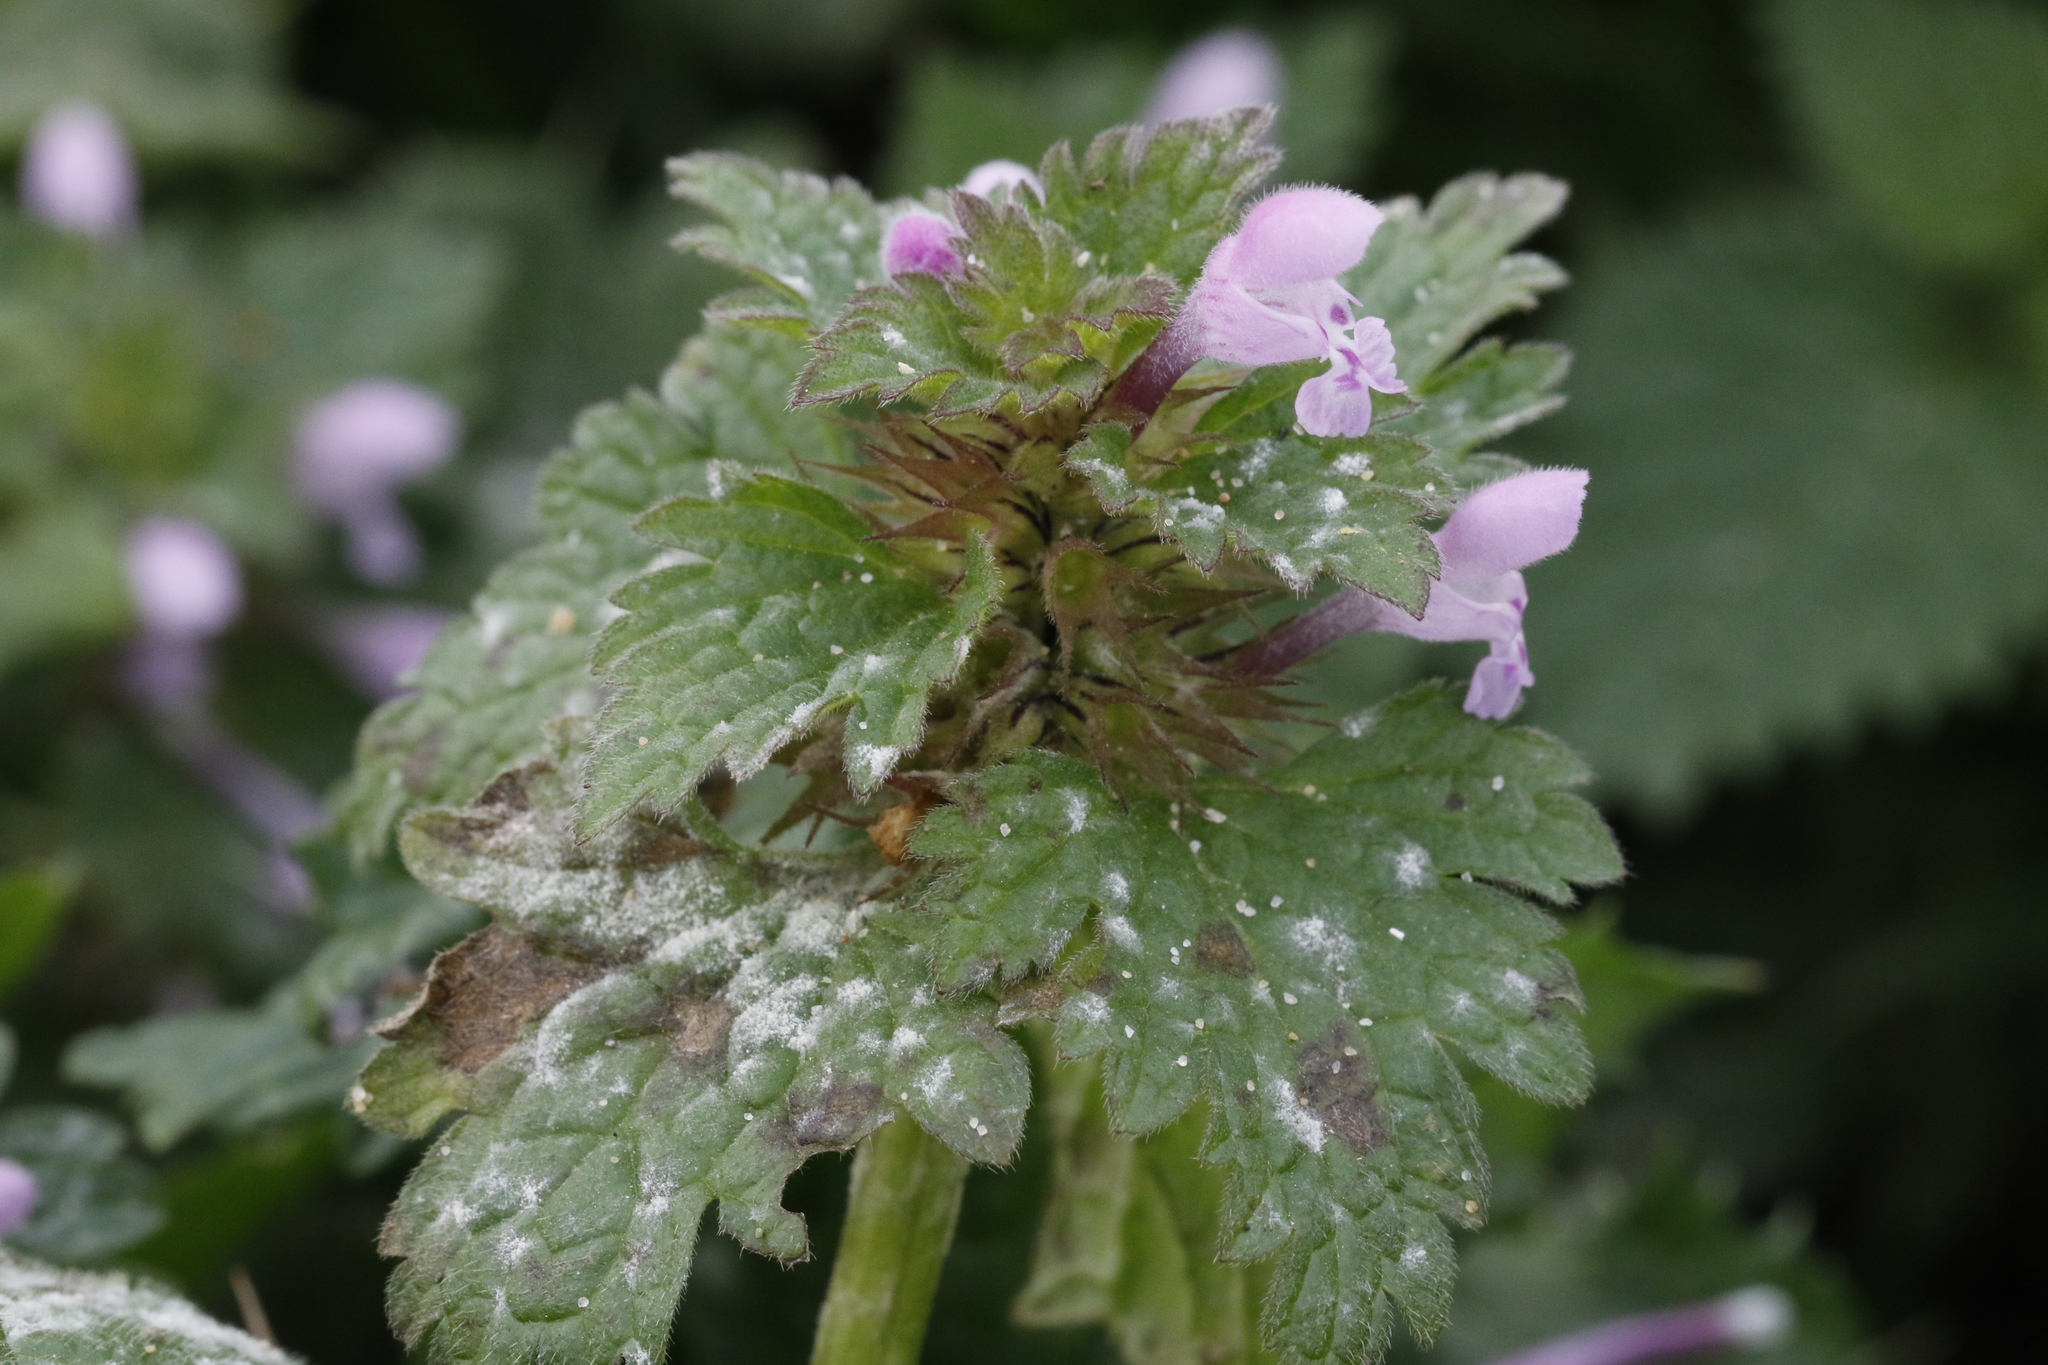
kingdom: Plantae
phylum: Tracheophyta
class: Magnoliopsida
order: Lamiales
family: Lamiaceae
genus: Lamium
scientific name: Lamium purpureum
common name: Red dead-nettle
